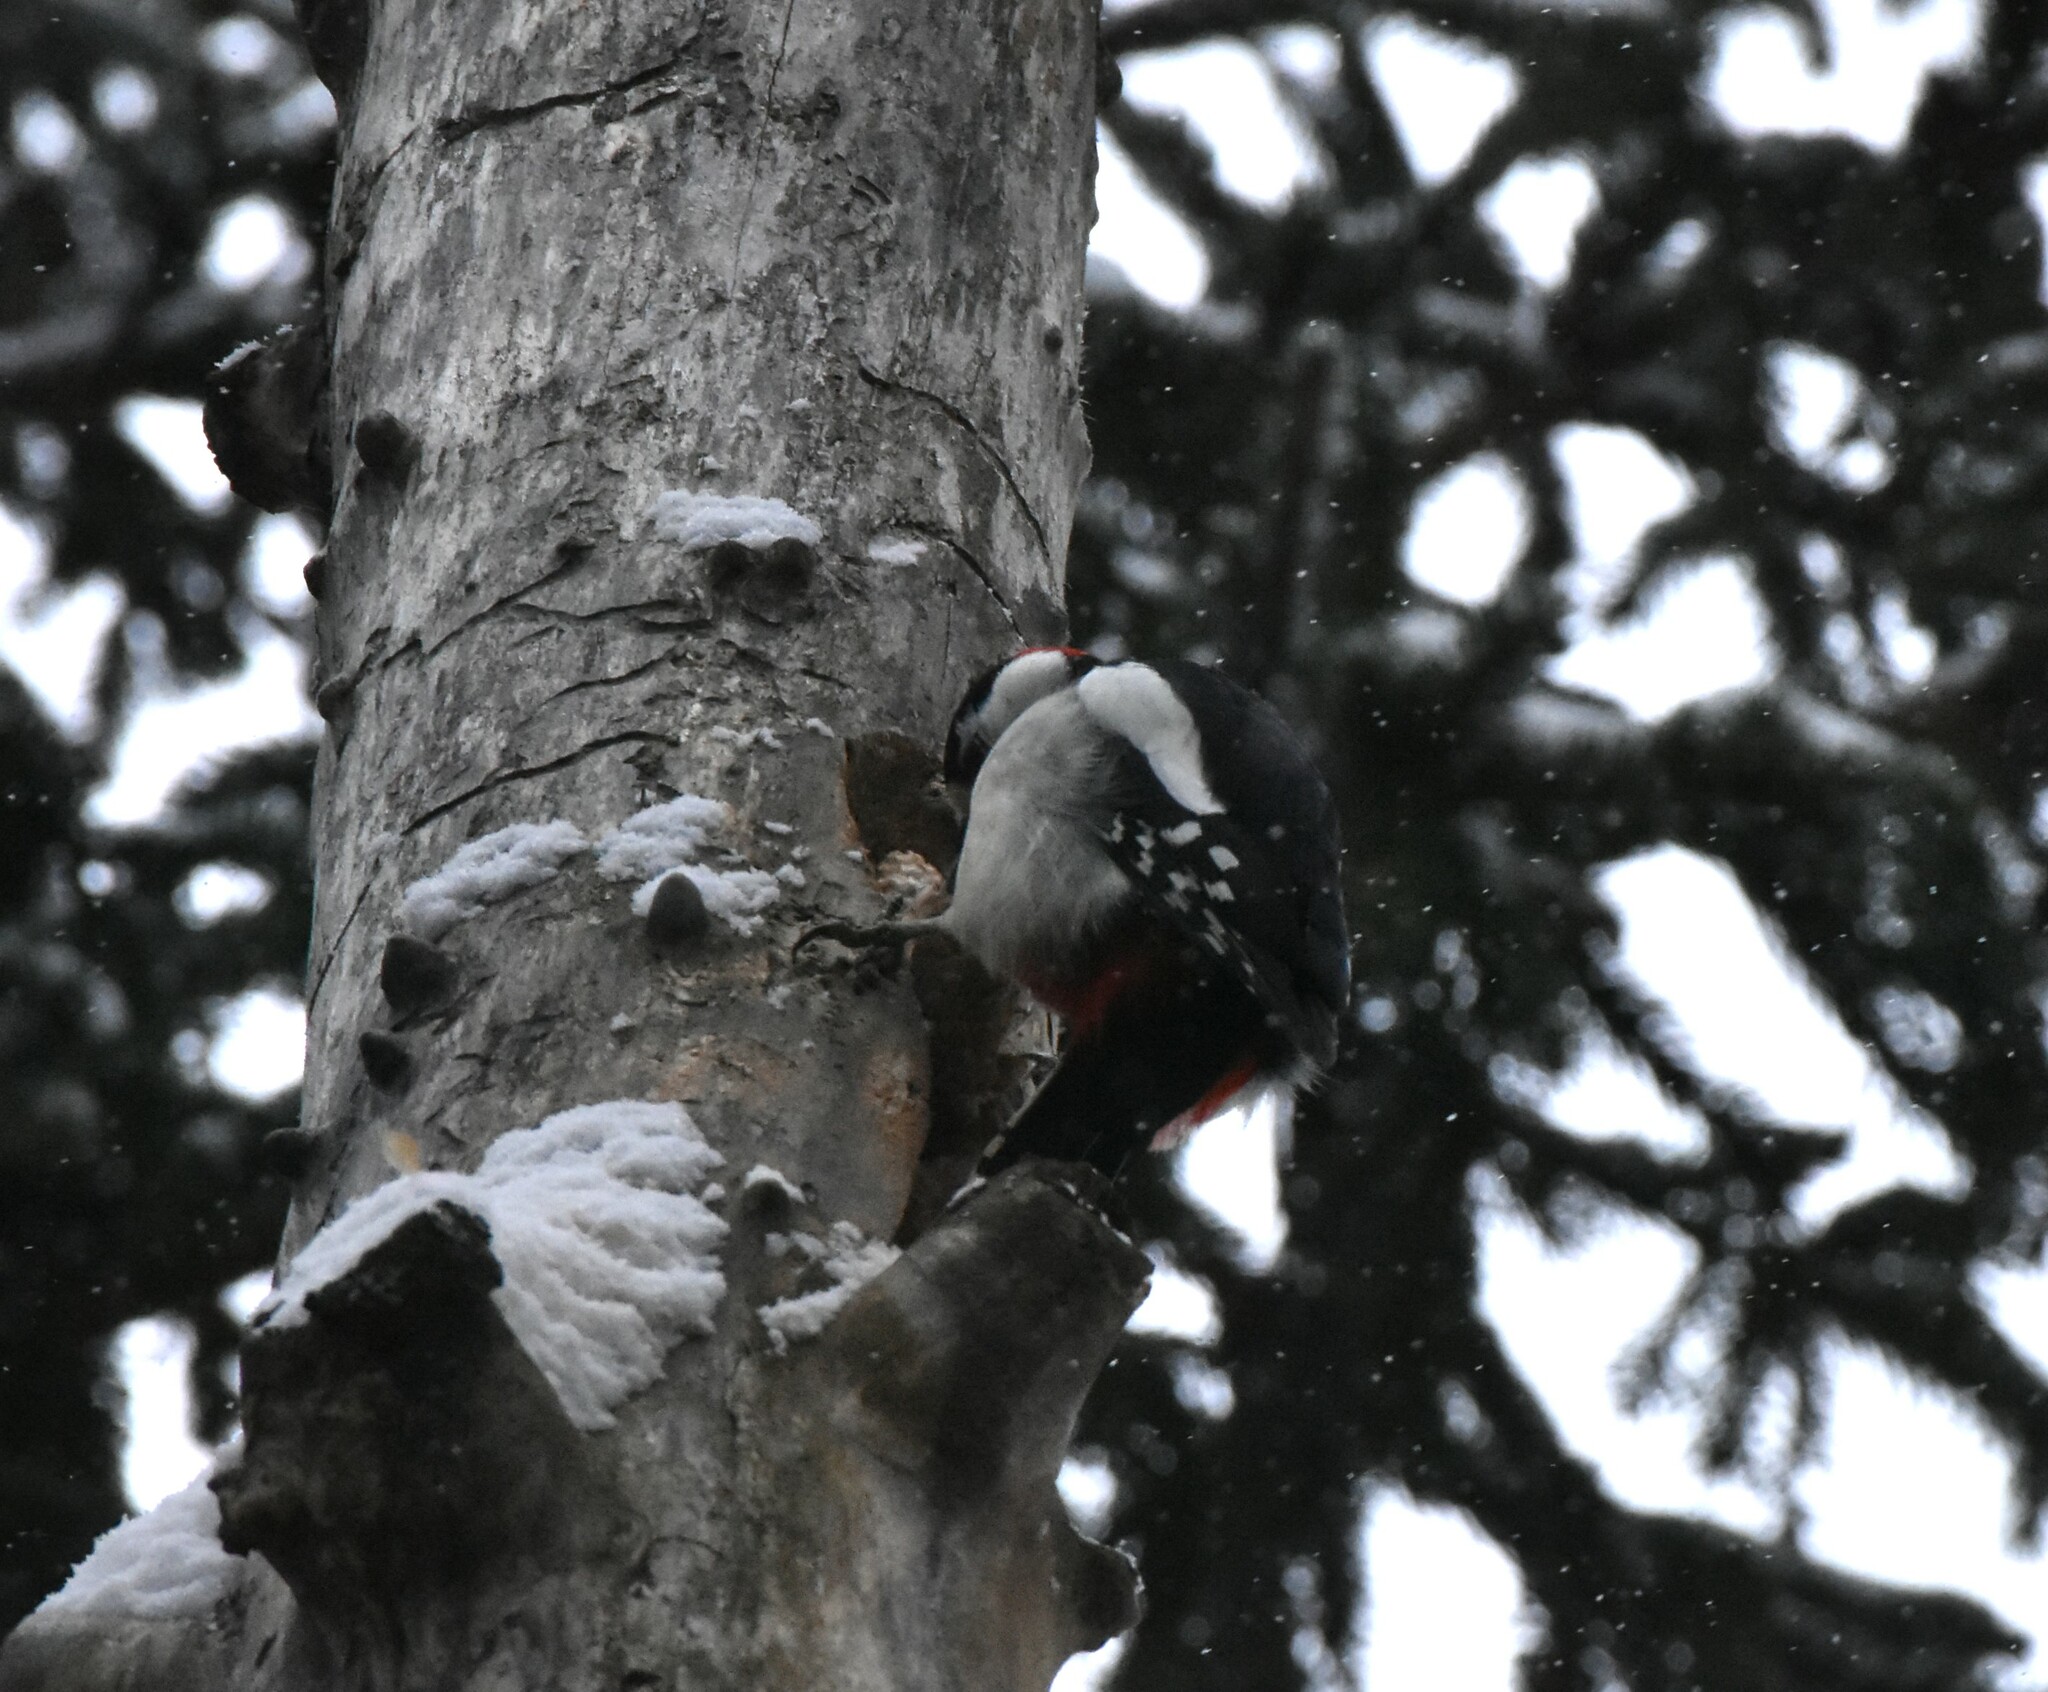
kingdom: Animalia
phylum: Chordata
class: Aves
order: Piciformes
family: Picidae
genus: Dendrocopos
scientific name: Dendrocopos major
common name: Great spotted woodpecker
